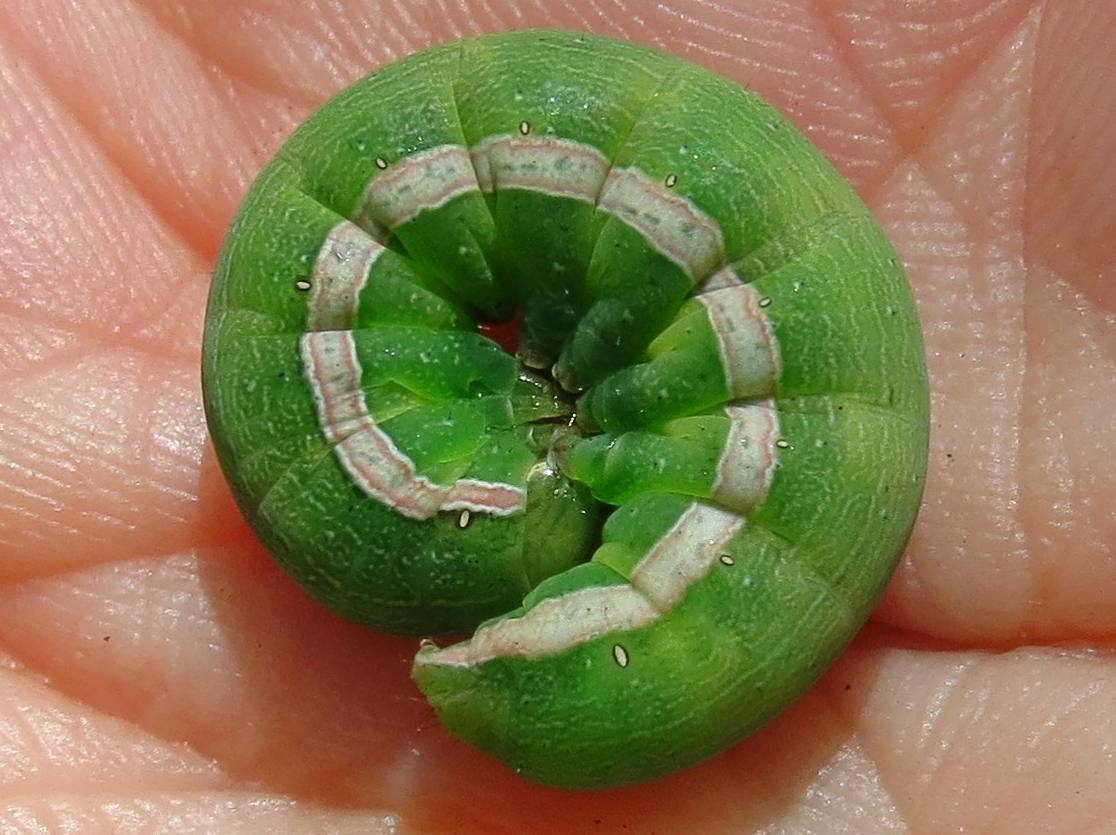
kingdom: Animalia
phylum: Arthropoda
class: Insecta
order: Lepidoptera
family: Noctuidae
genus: Anicla
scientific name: Anicla infecta
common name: Green cutworm
